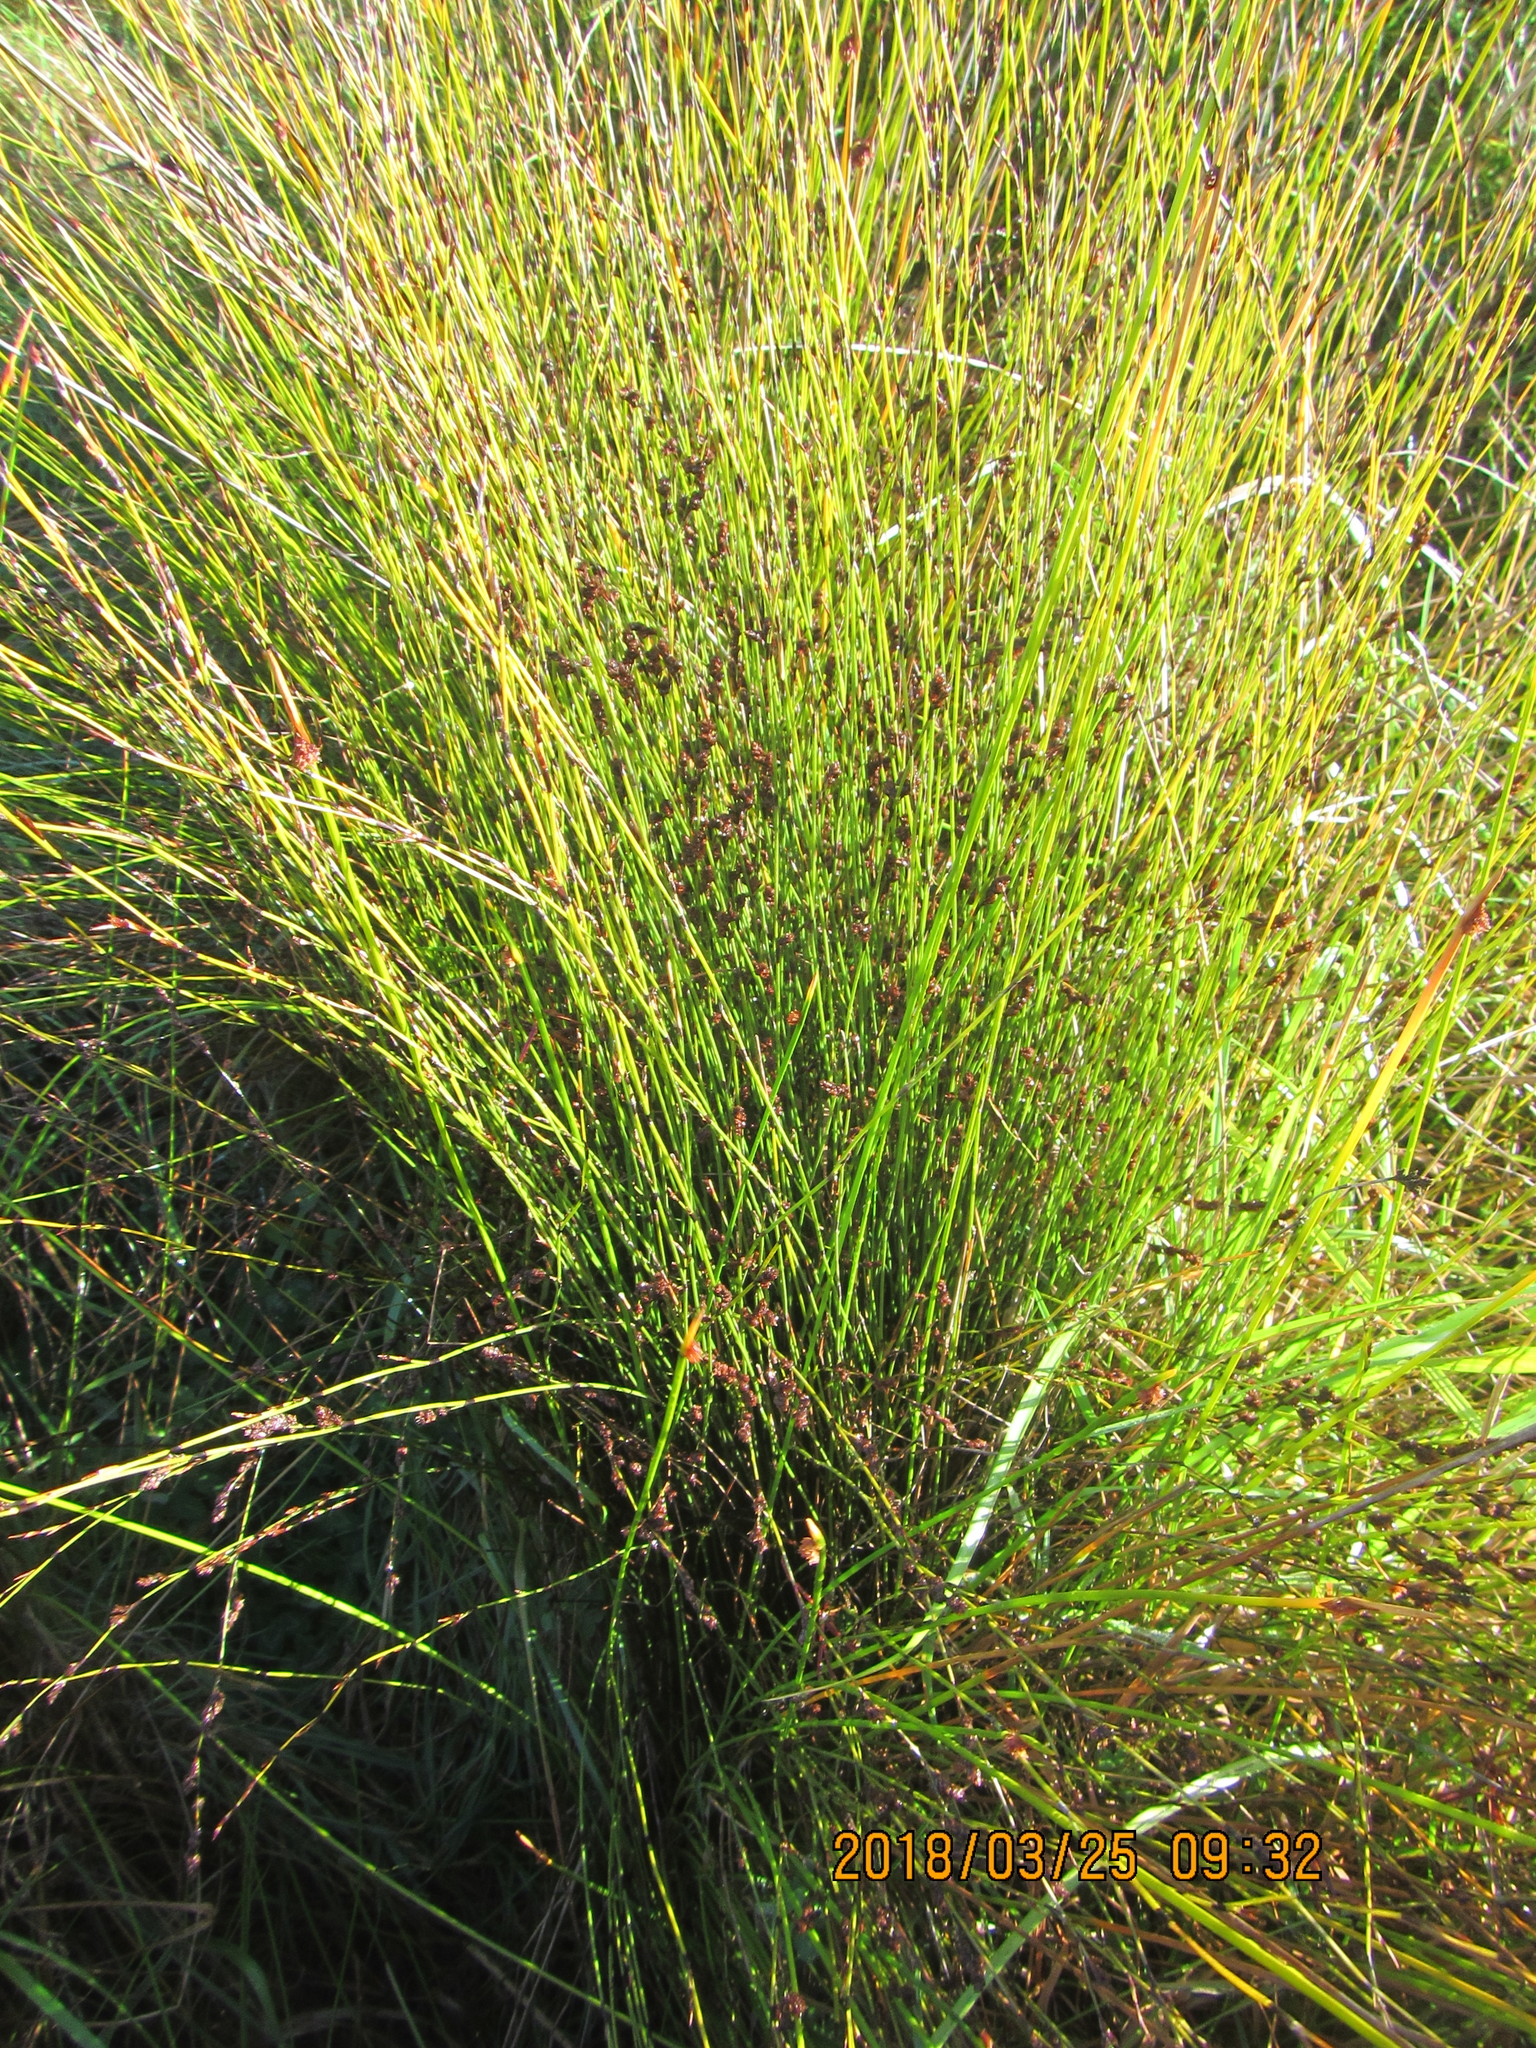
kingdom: Plantae
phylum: Tracheophyta
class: Liliopsida
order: Poales
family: Restionaceae
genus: Apodasmia
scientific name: Apodasmia similis
